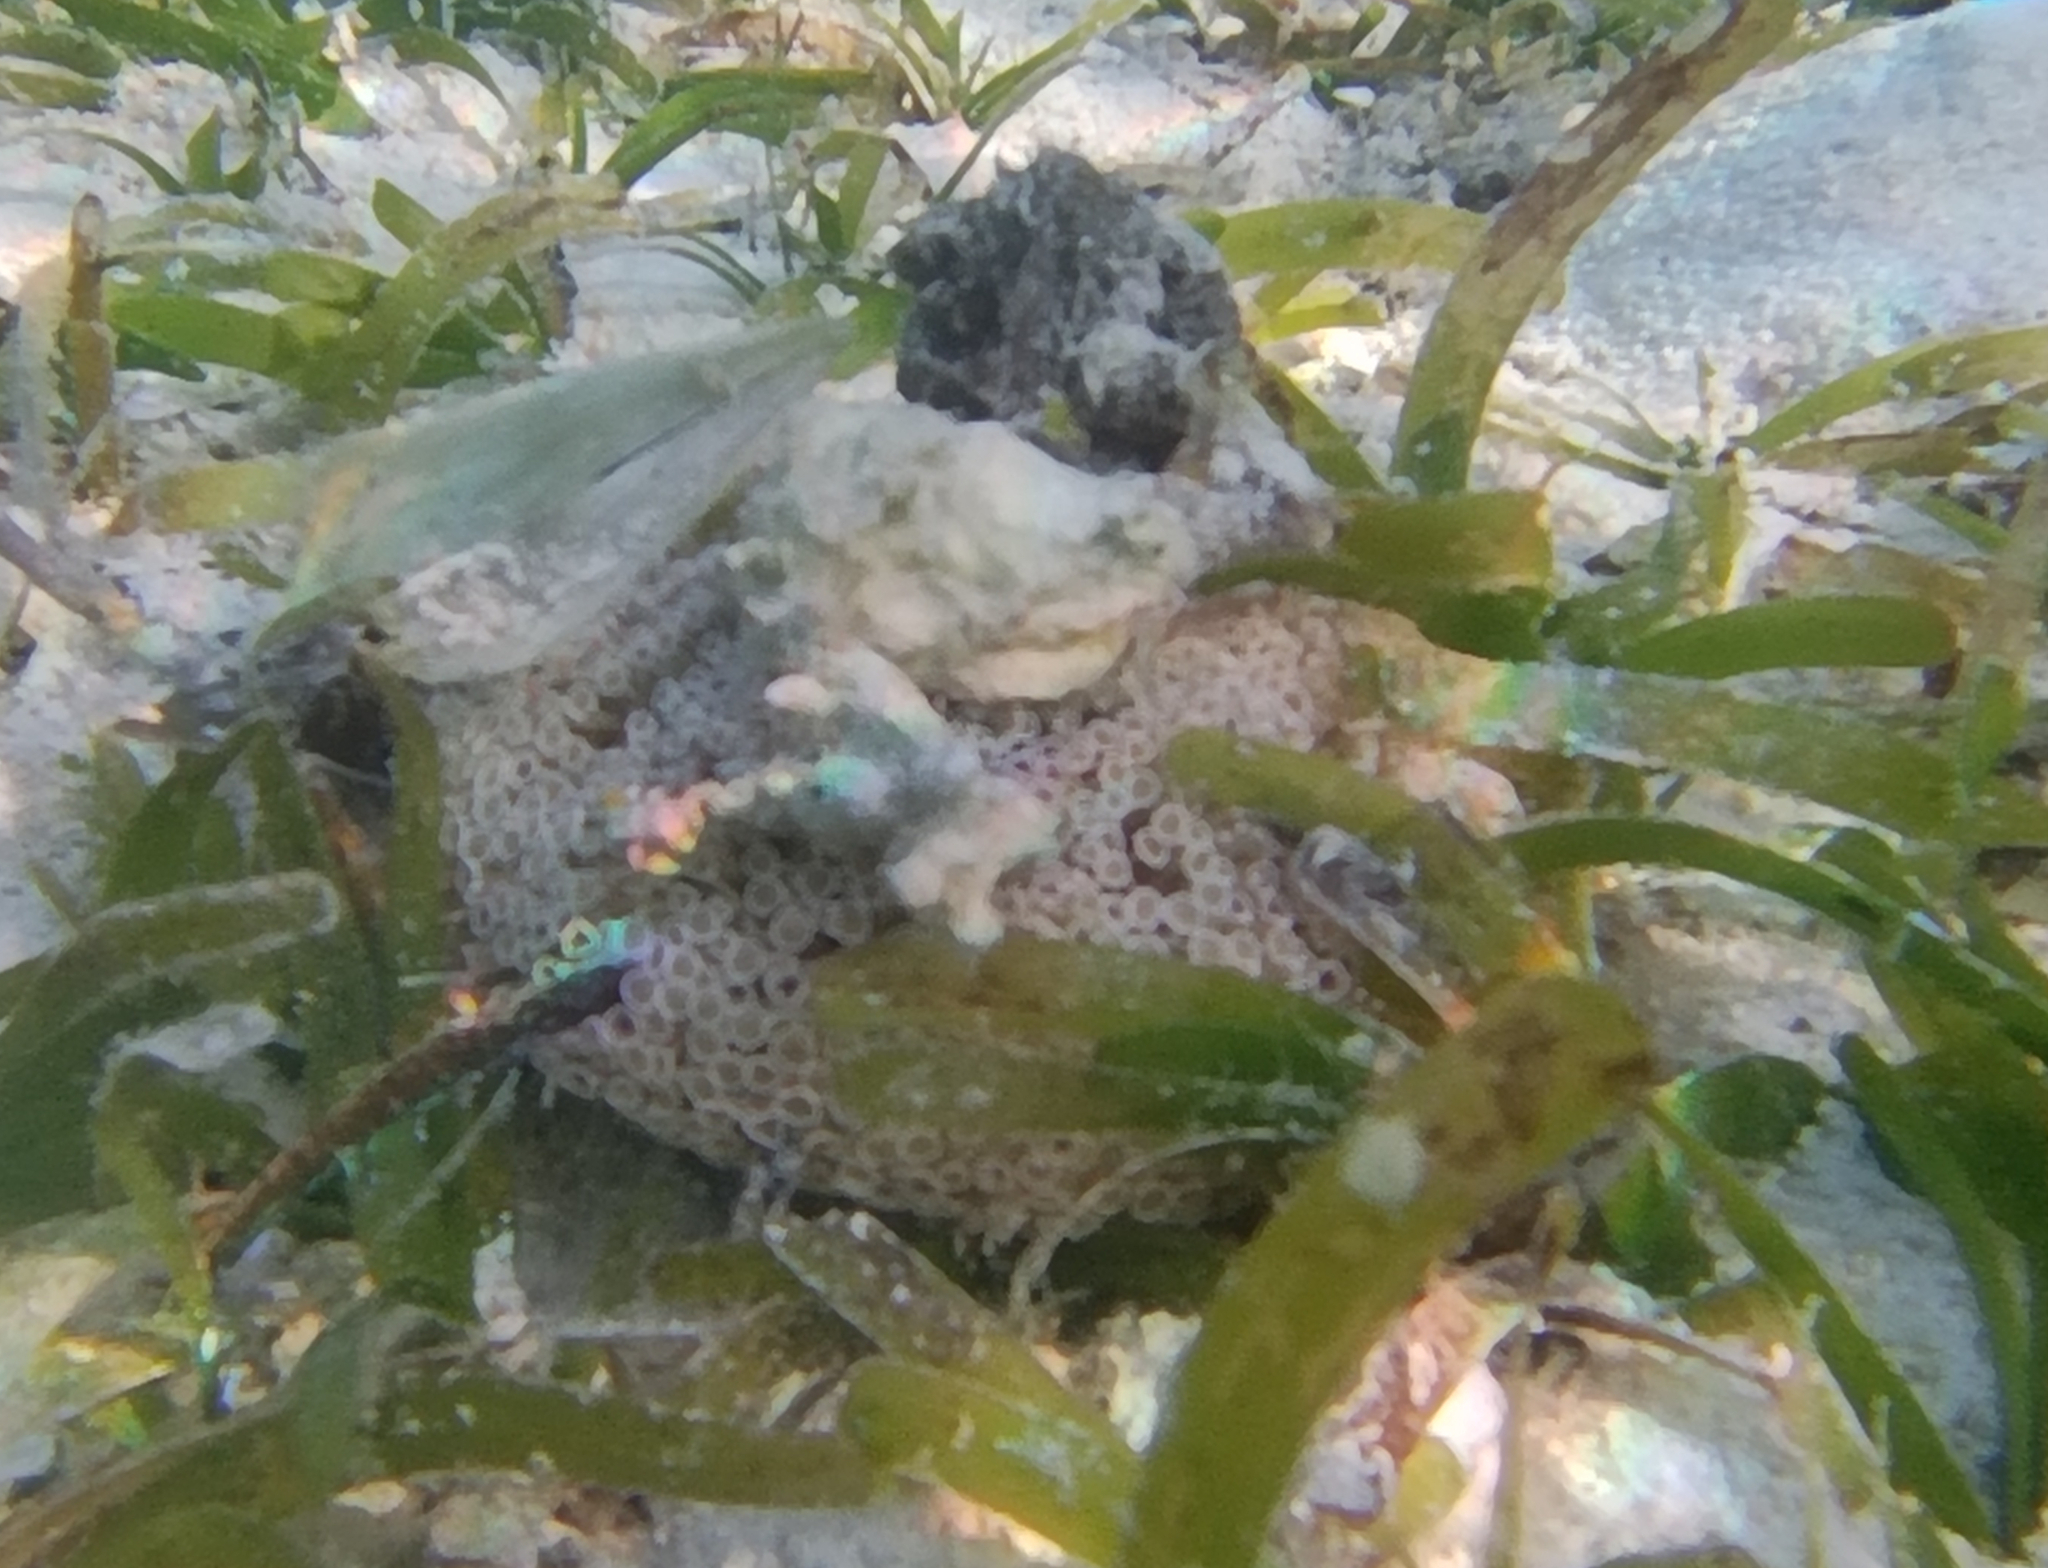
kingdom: Animalia
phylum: Echinodermata
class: Echinoidea
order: Camarodonta
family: Toxopneustidae
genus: Toxopneustes
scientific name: Toxopneustes pileolus
